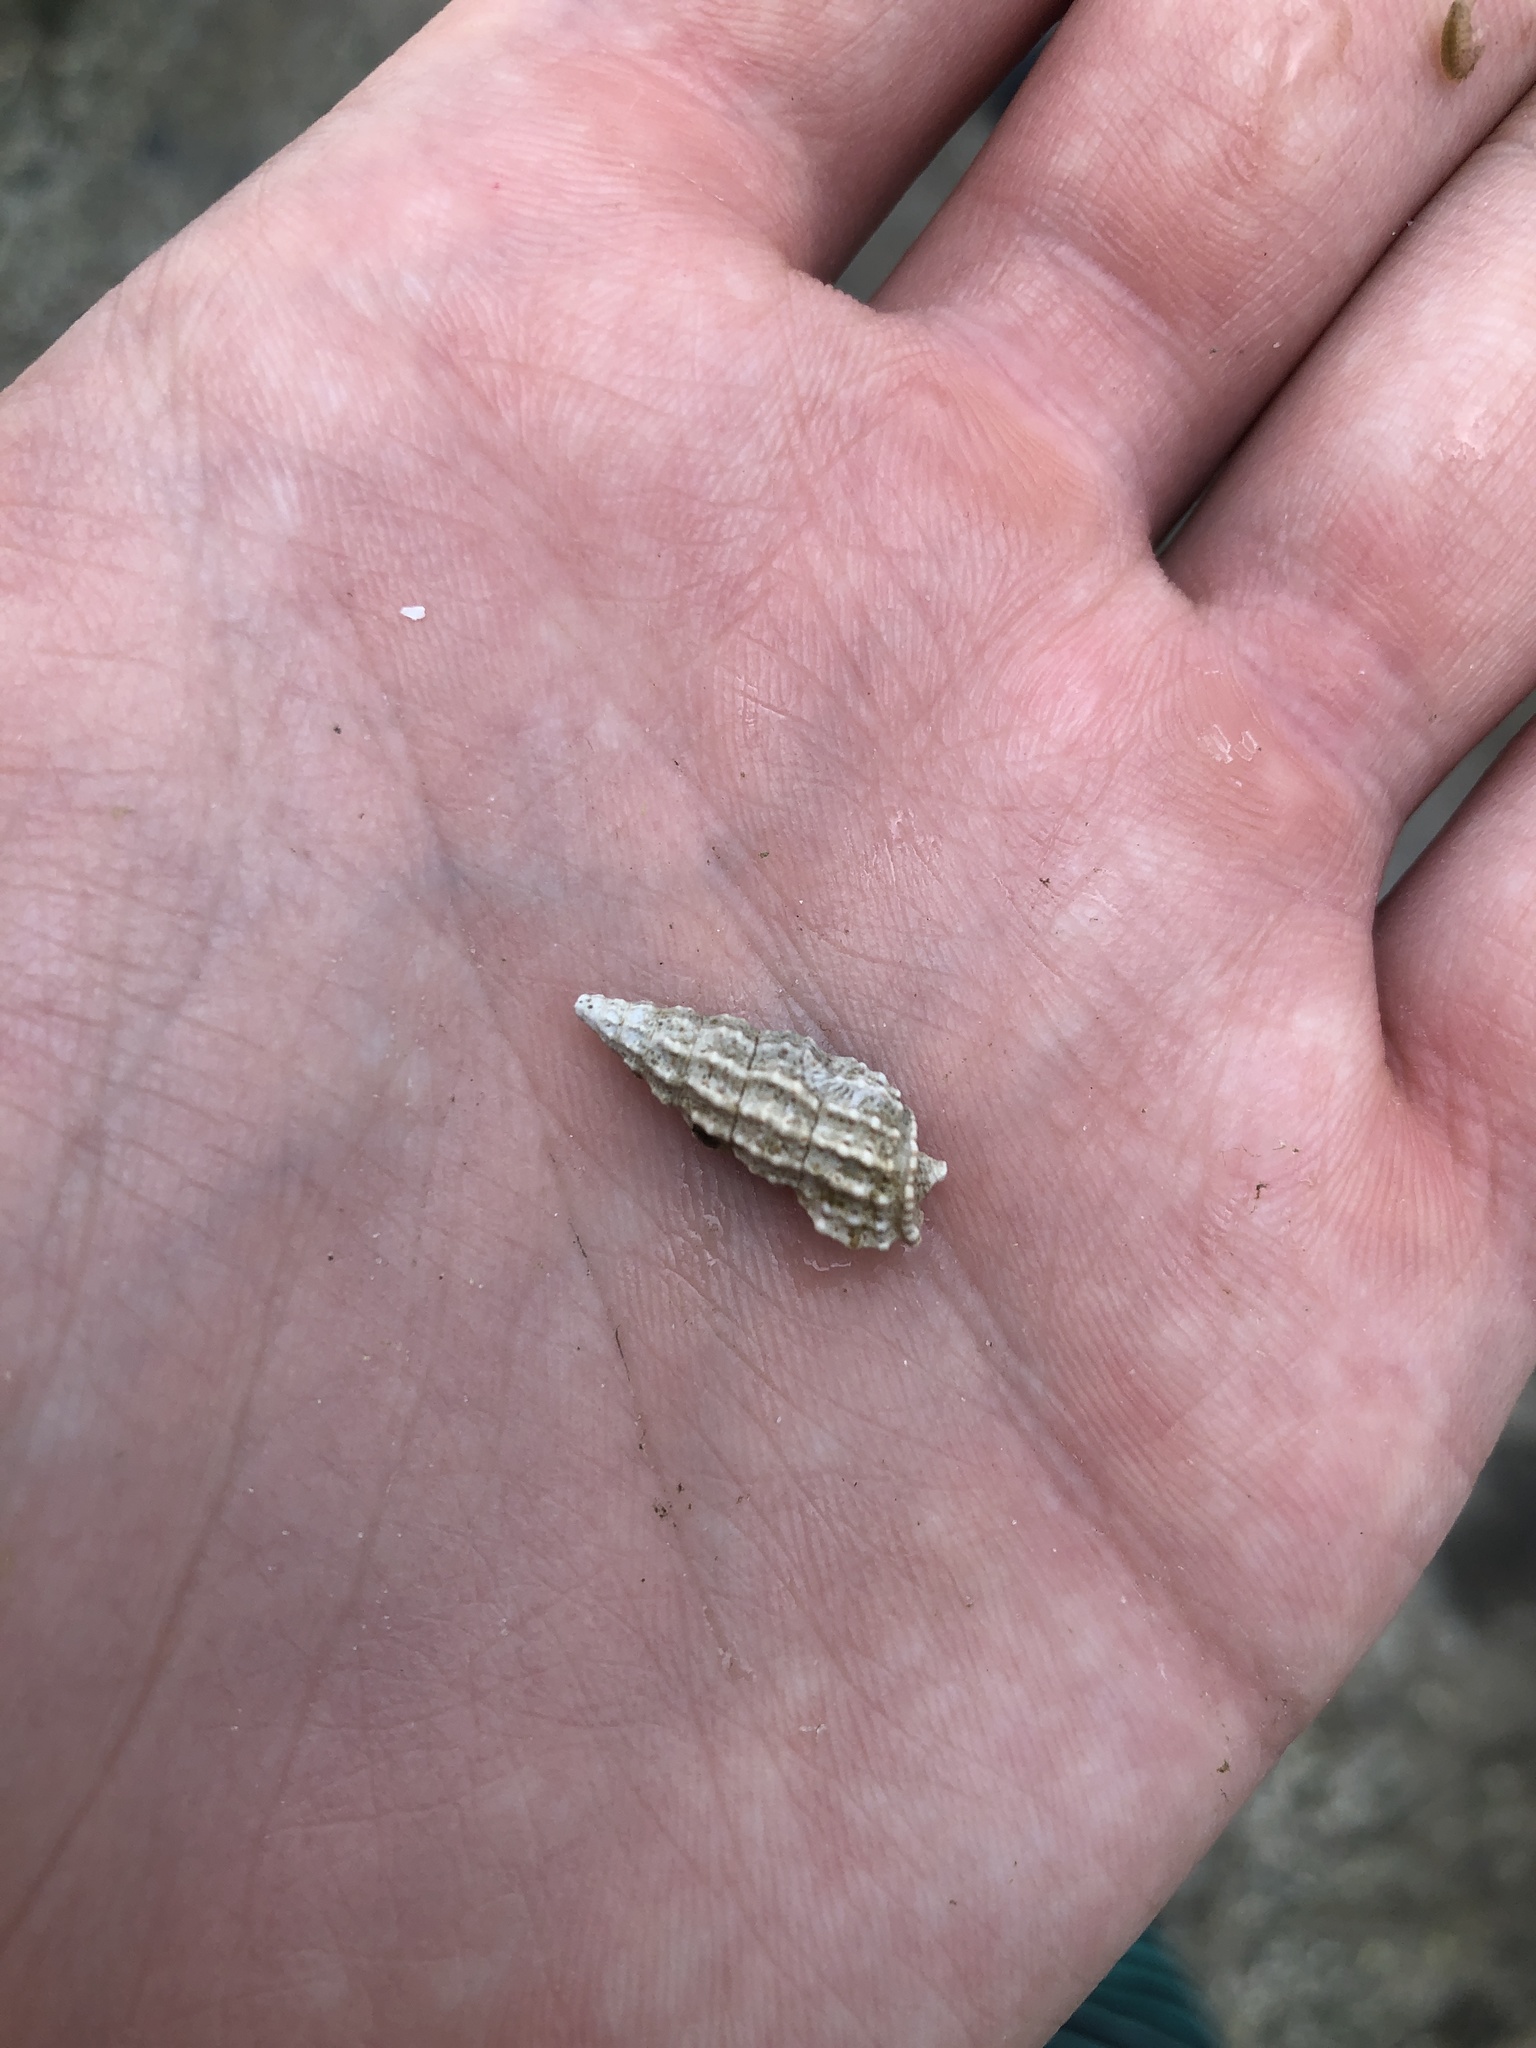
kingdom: Animalia
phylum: Mollusca
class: Gastropoda
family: Cerithiidae
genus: Cerithium
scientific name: Cerithium muscarum
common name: Fly-specked cerith
